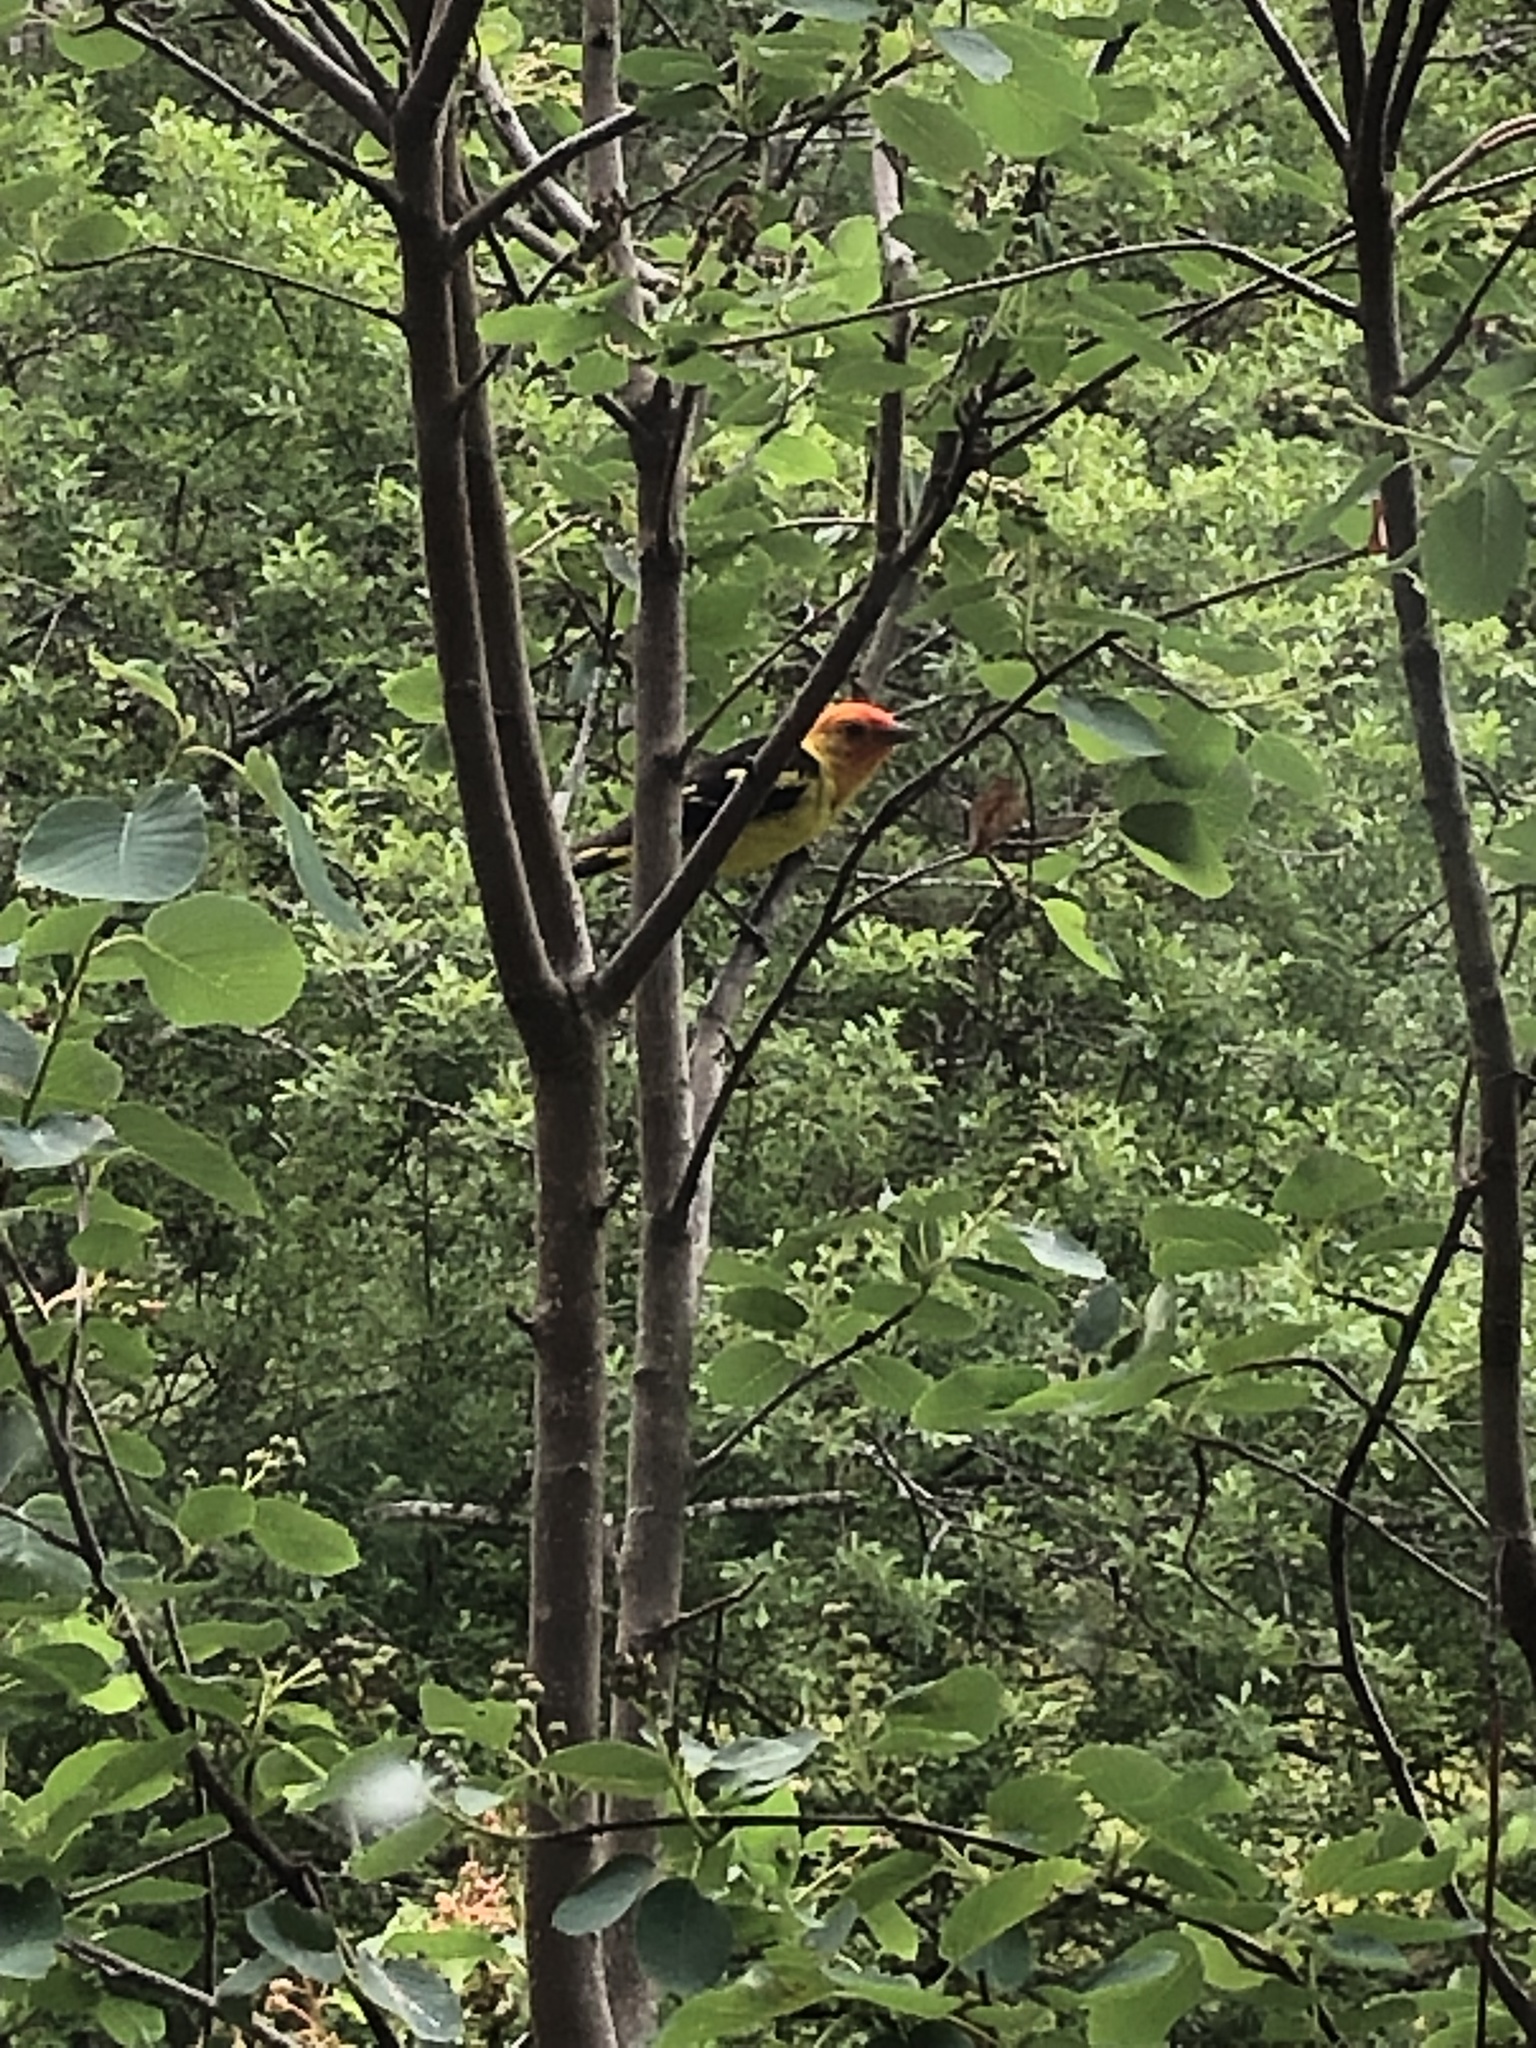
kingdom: Animalia
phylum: Chordata
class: Aves
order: Passeriformes
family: Cardinalidae
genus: Piranga
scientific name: Piranga ludoviciana
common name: Western tanager
